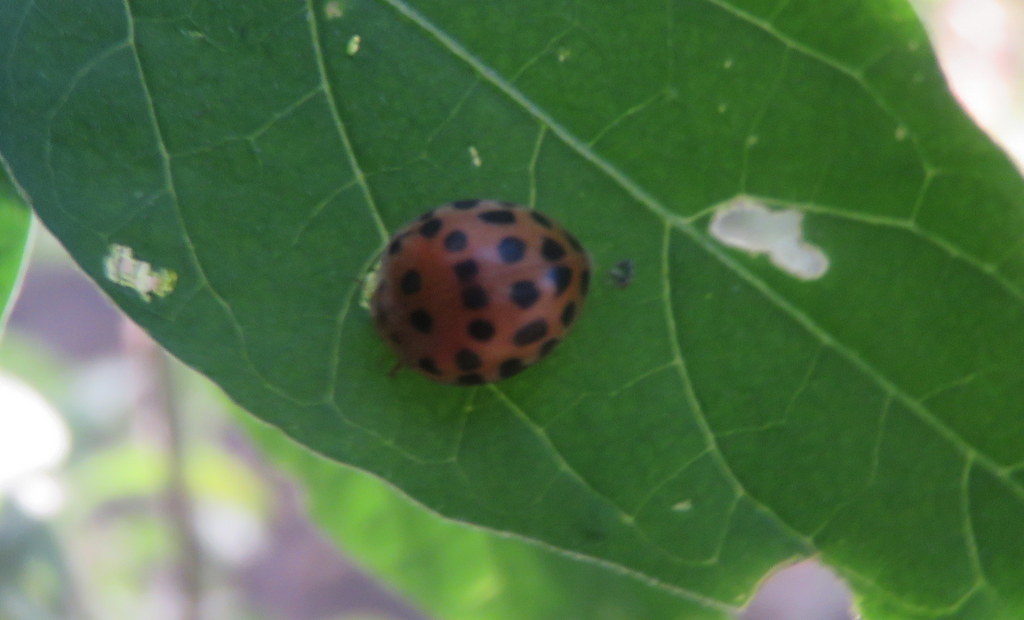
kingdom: Animalia
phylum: Arthropoda
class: Insecta
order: Coleoptera
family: Coccinellidae
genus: Henosepilachna
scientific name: Henosepilachna vigintioctopunctata
